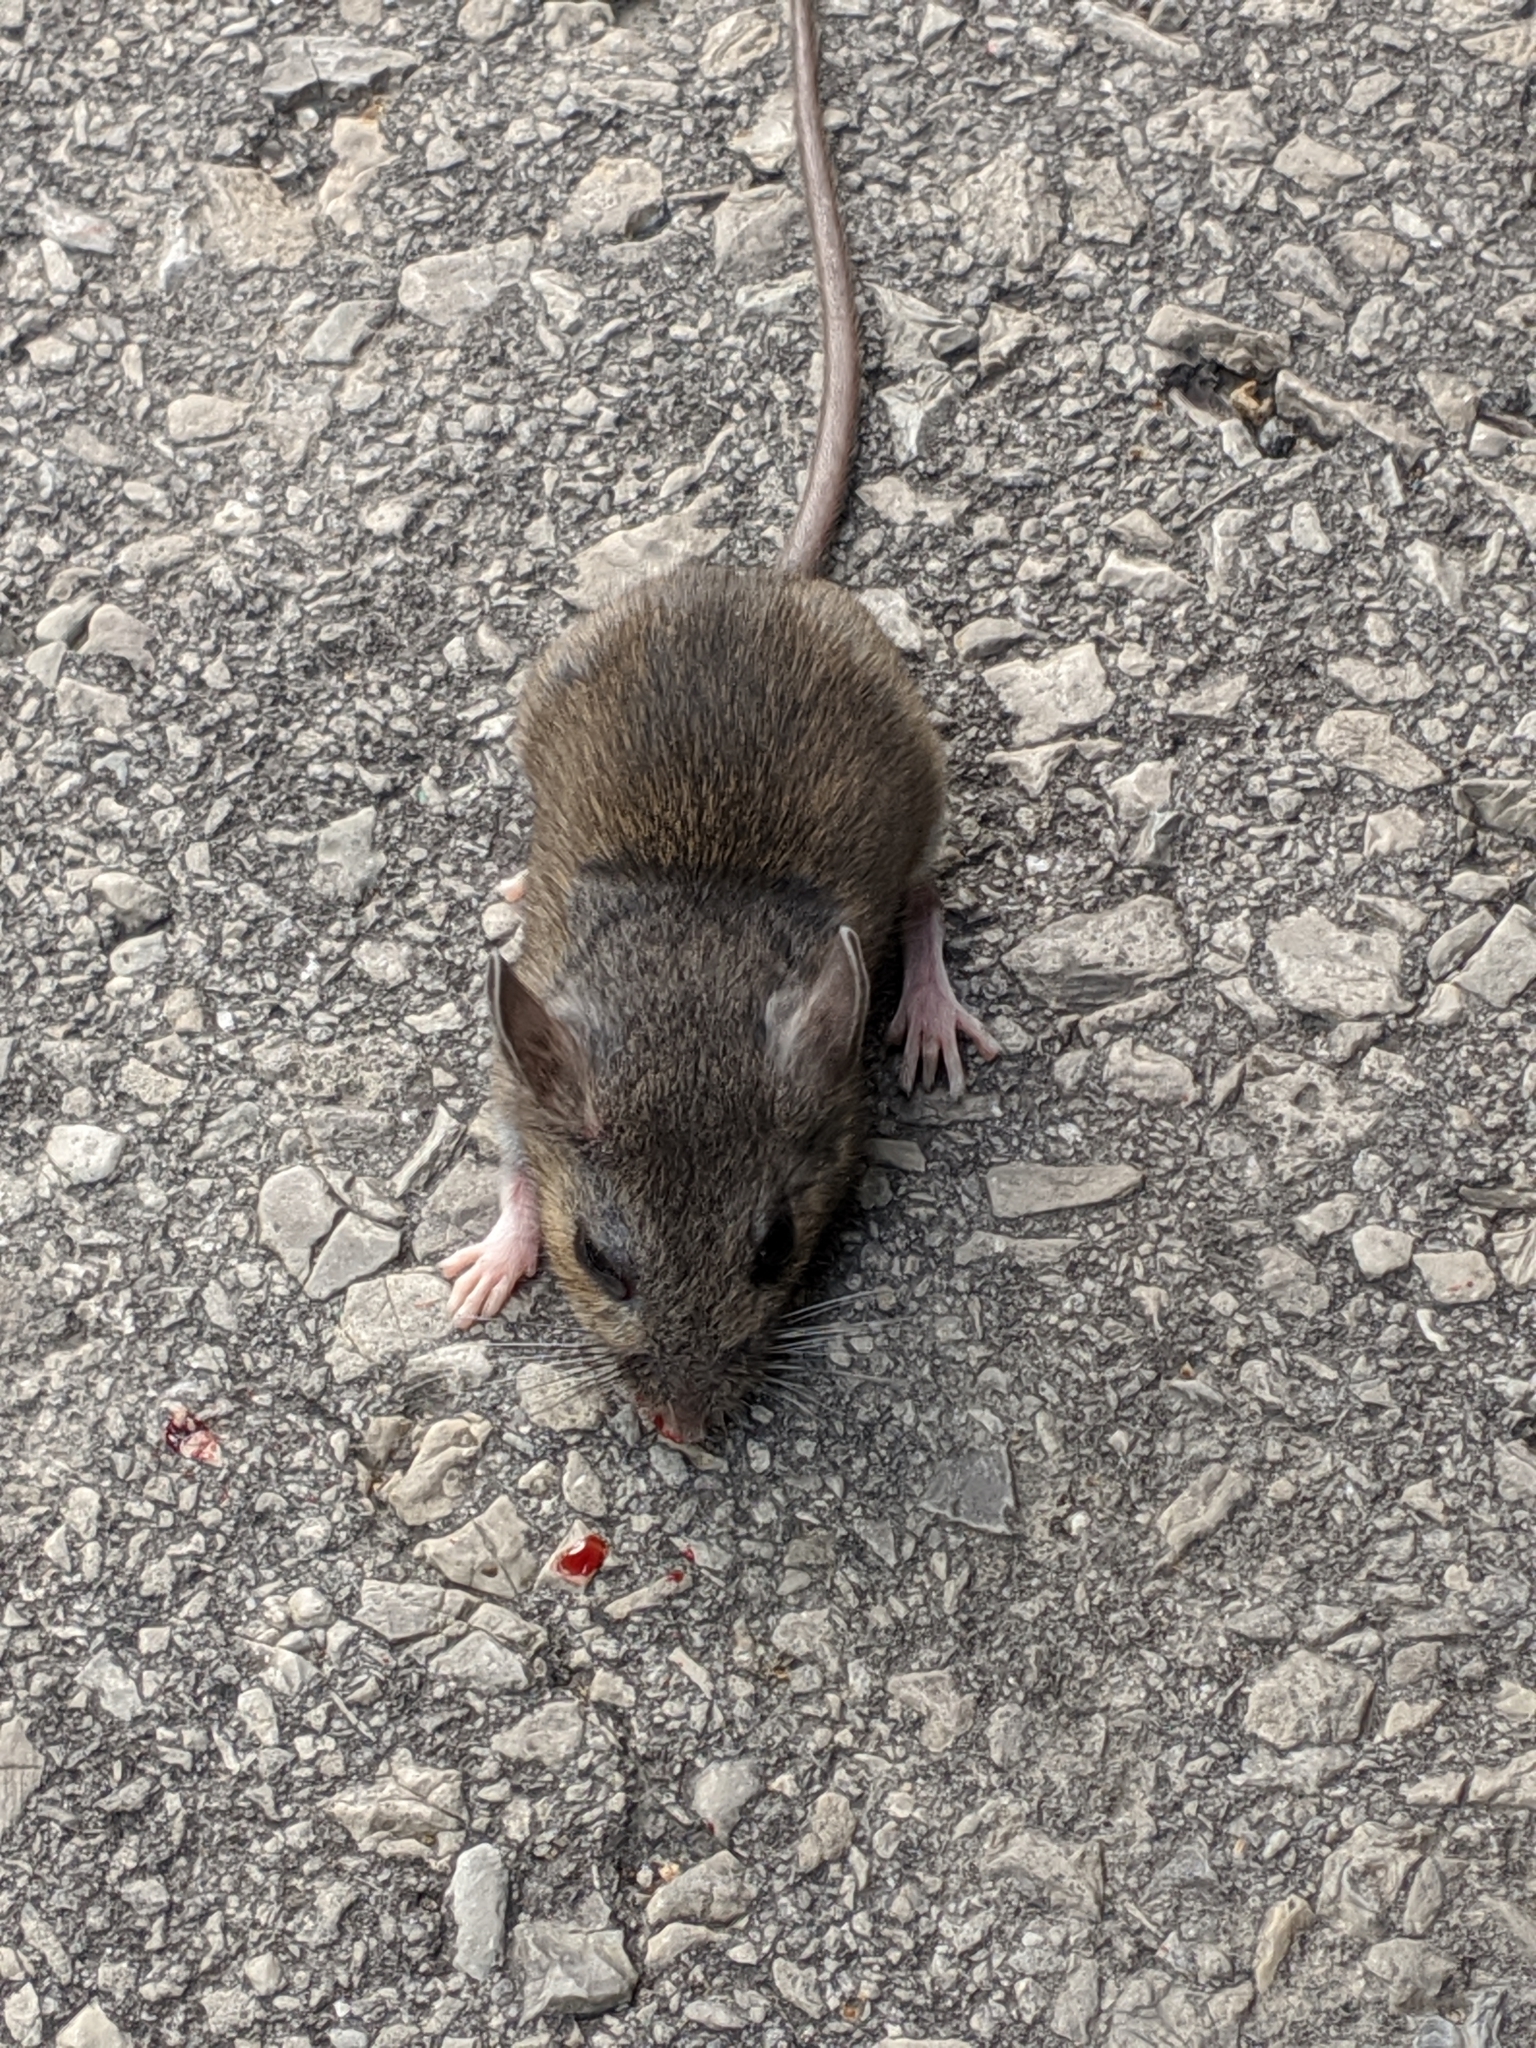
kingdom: Animalia
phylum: Chordata
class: Mammalia
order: Rodentia
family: Cricetidae
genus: Peromyscus
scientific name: Peromyscus leucopus
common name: White-footed deermouse
